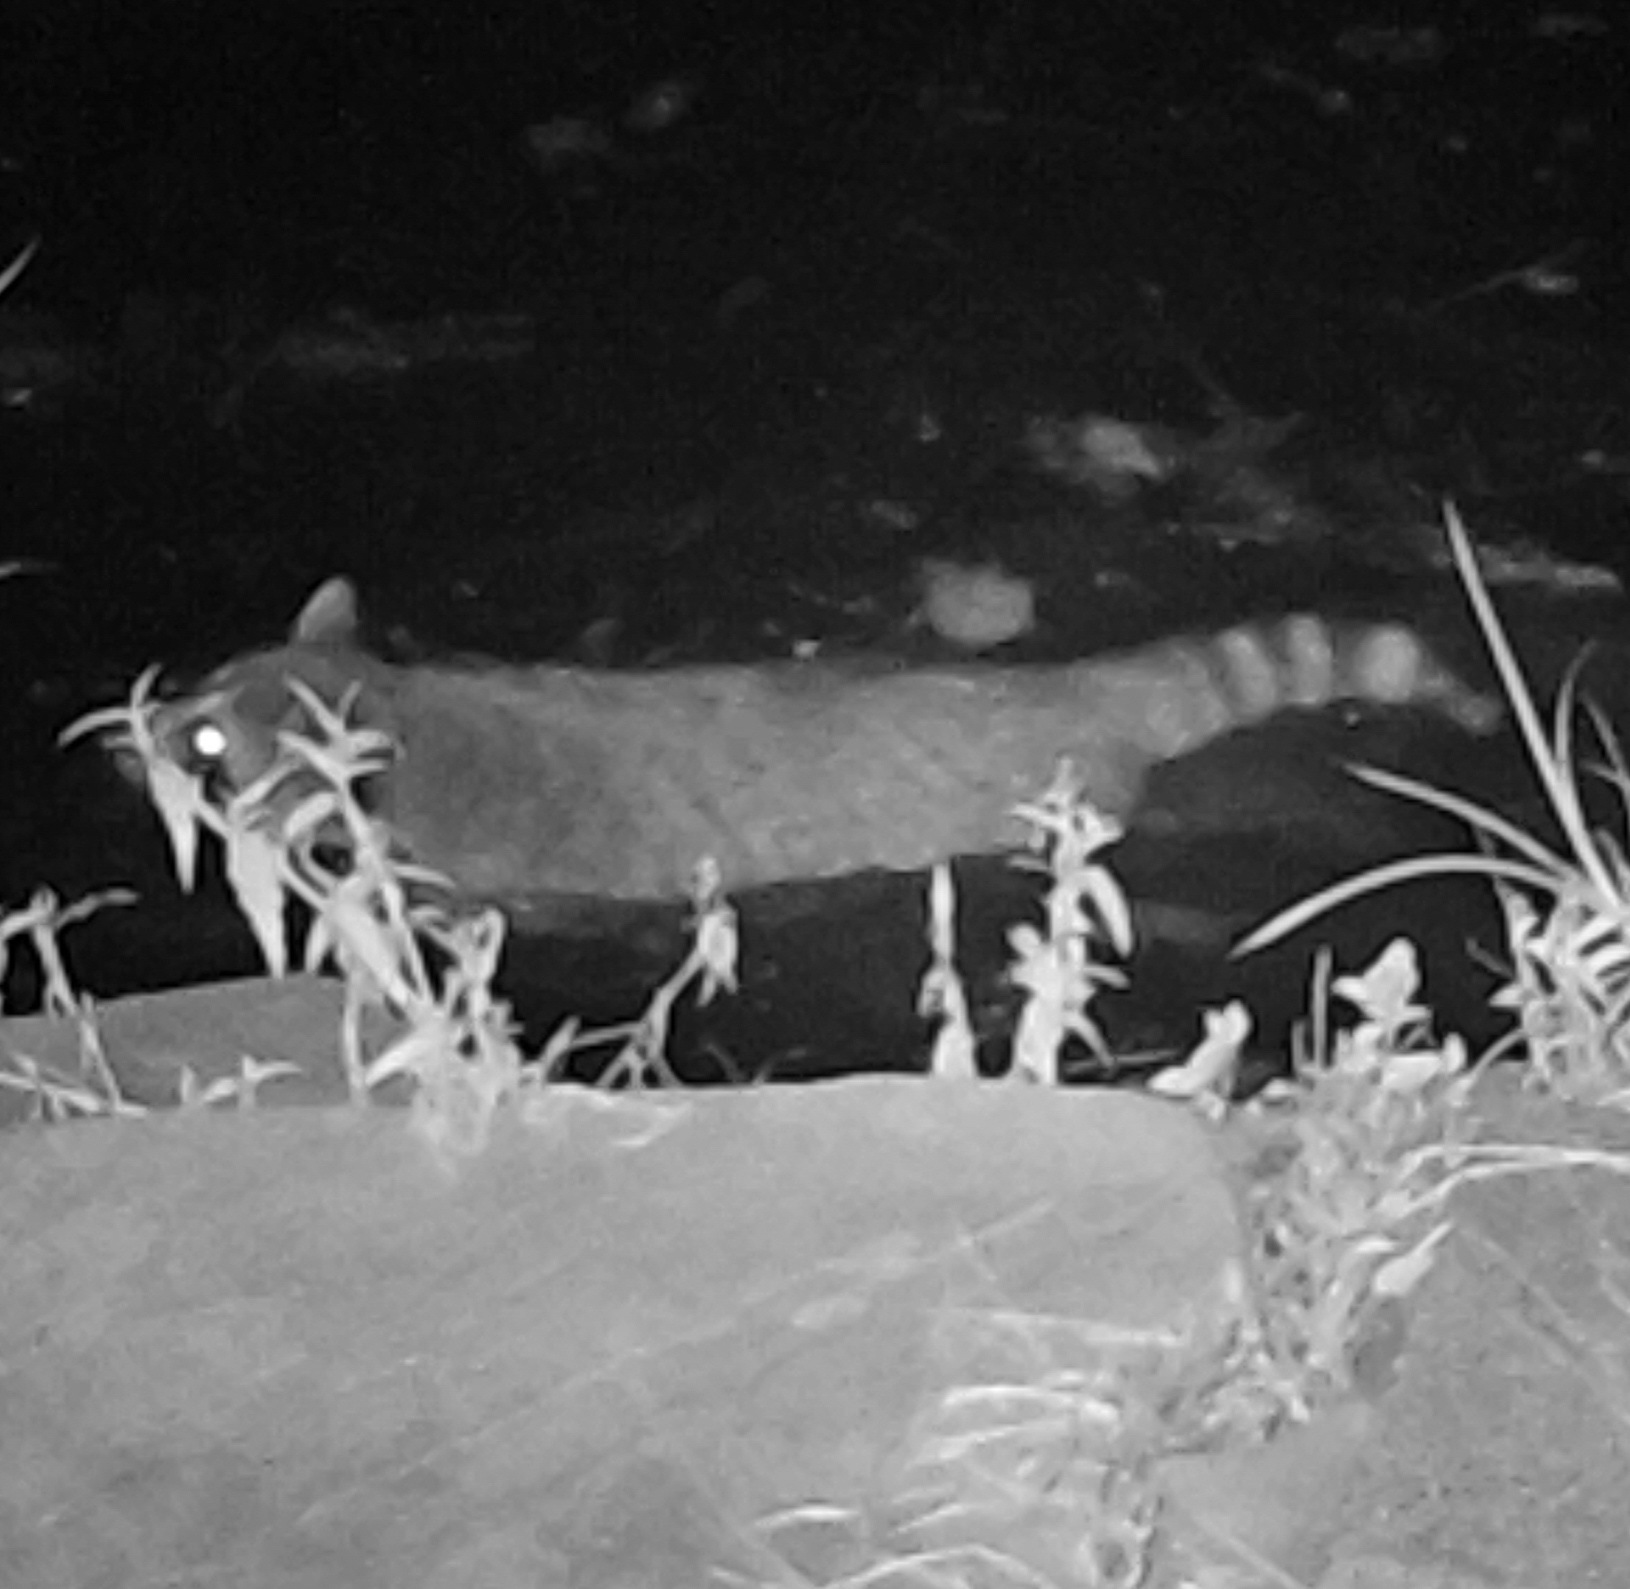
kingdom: Animalia
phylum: Chordata
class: Mammalia
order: Carnivora
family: Procyonidae
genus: Procyon
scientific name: Procyon lotor
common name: Raccoon
